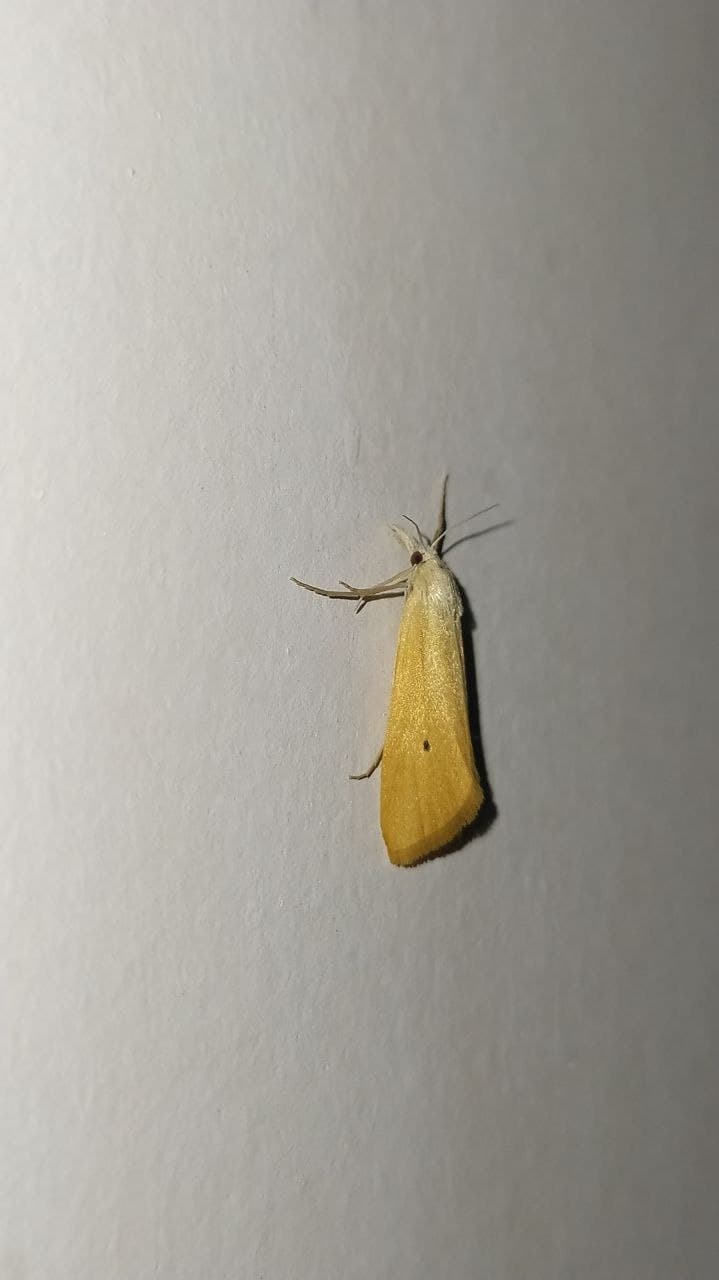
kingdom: Animalia
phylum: Arthropoda
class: Insecta
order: Lepidoptera
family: Crambidae
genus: Scirpophaga
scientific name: Scirpophaga incertulas
